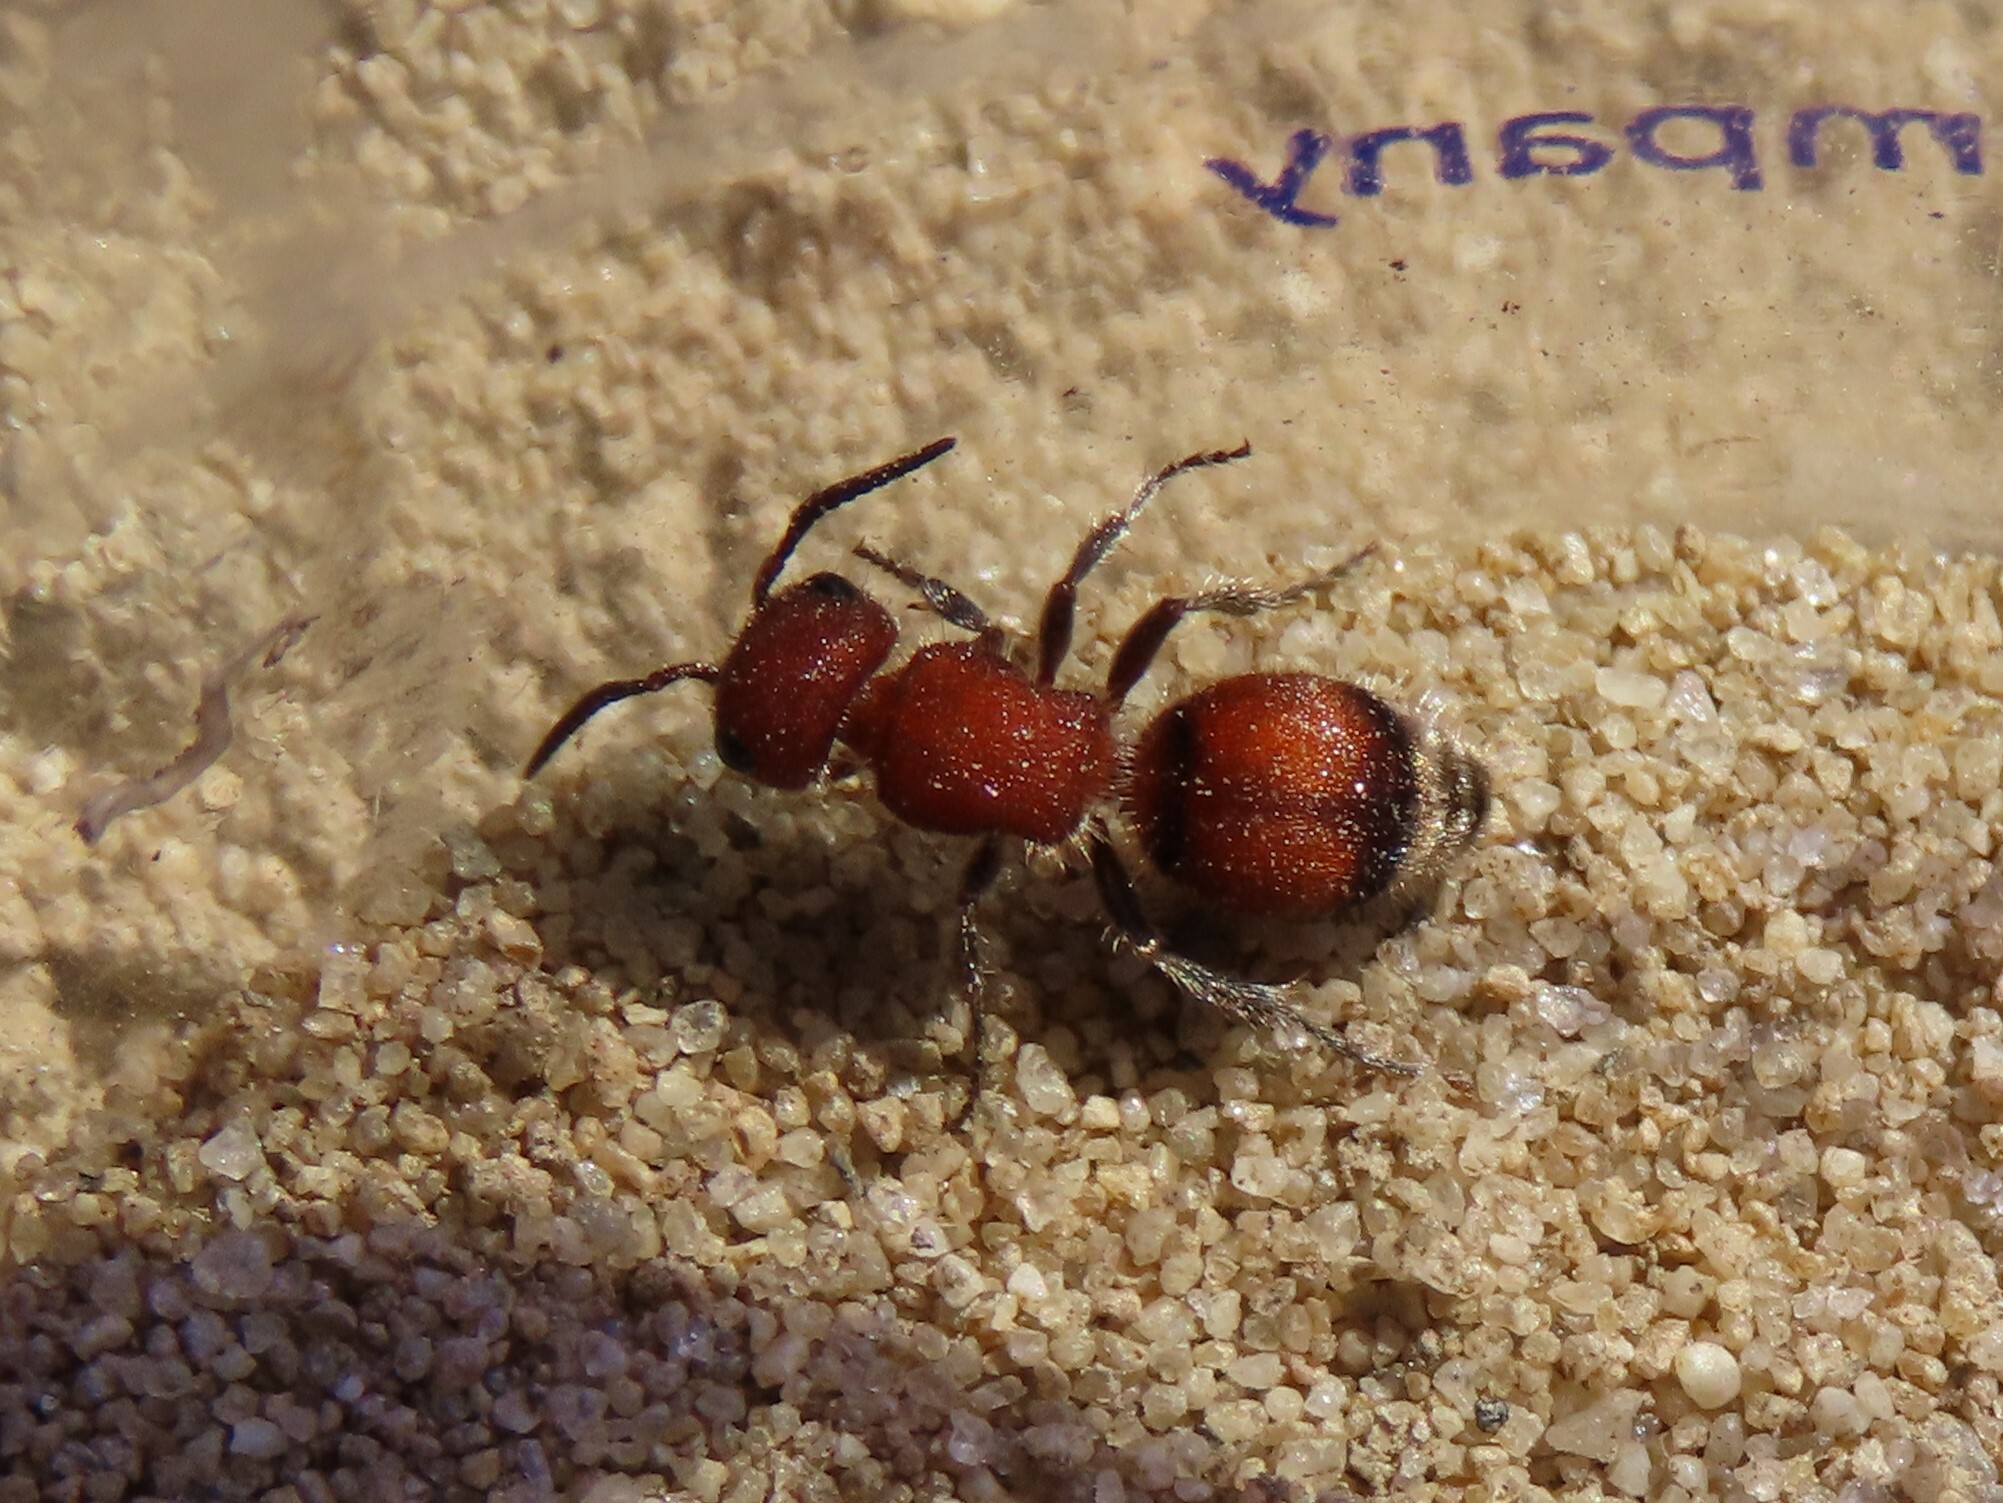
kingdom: Animalia
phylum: Arthropoda
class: Insecta
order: Hymenoptera
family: Mutillidae
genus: Pseudomethoca
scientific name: Pseudomethoca
